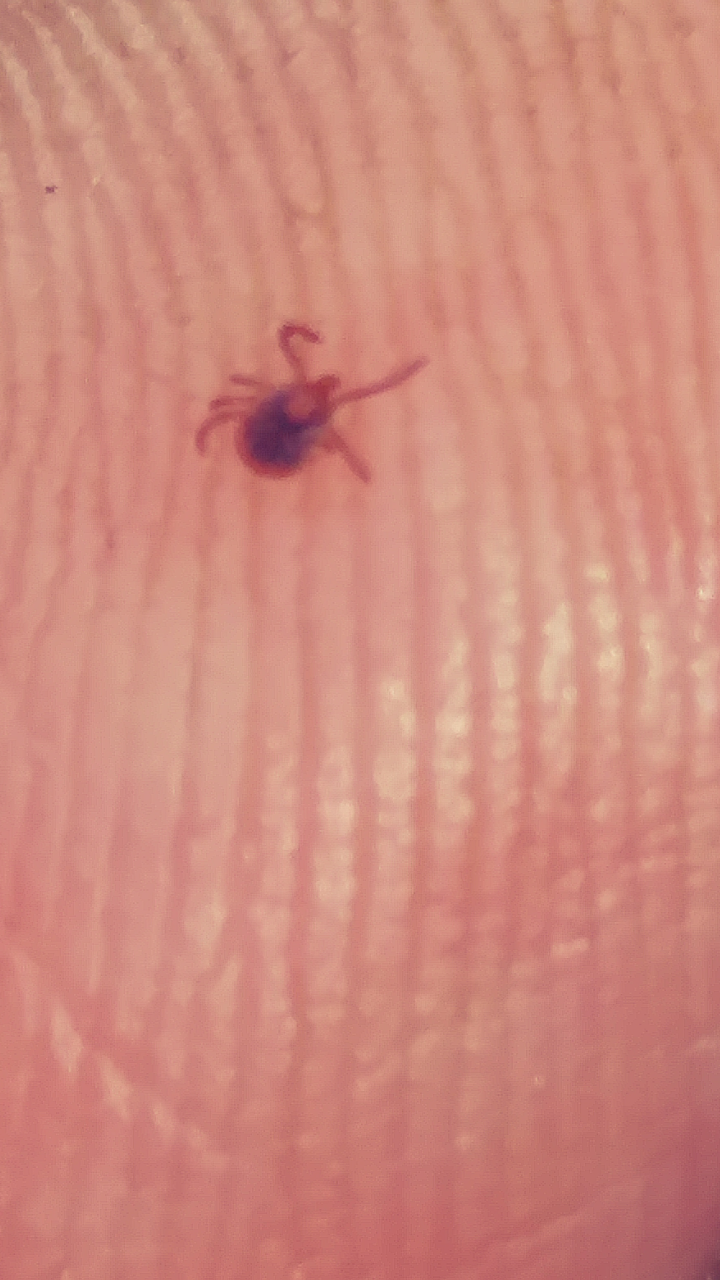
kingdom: Animalia
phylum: Arthropoda
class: Arachnida
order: Ixodida
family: Ixodidae
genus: Amblyomma
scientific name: Amblyomma americanum
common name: Lone star tick
